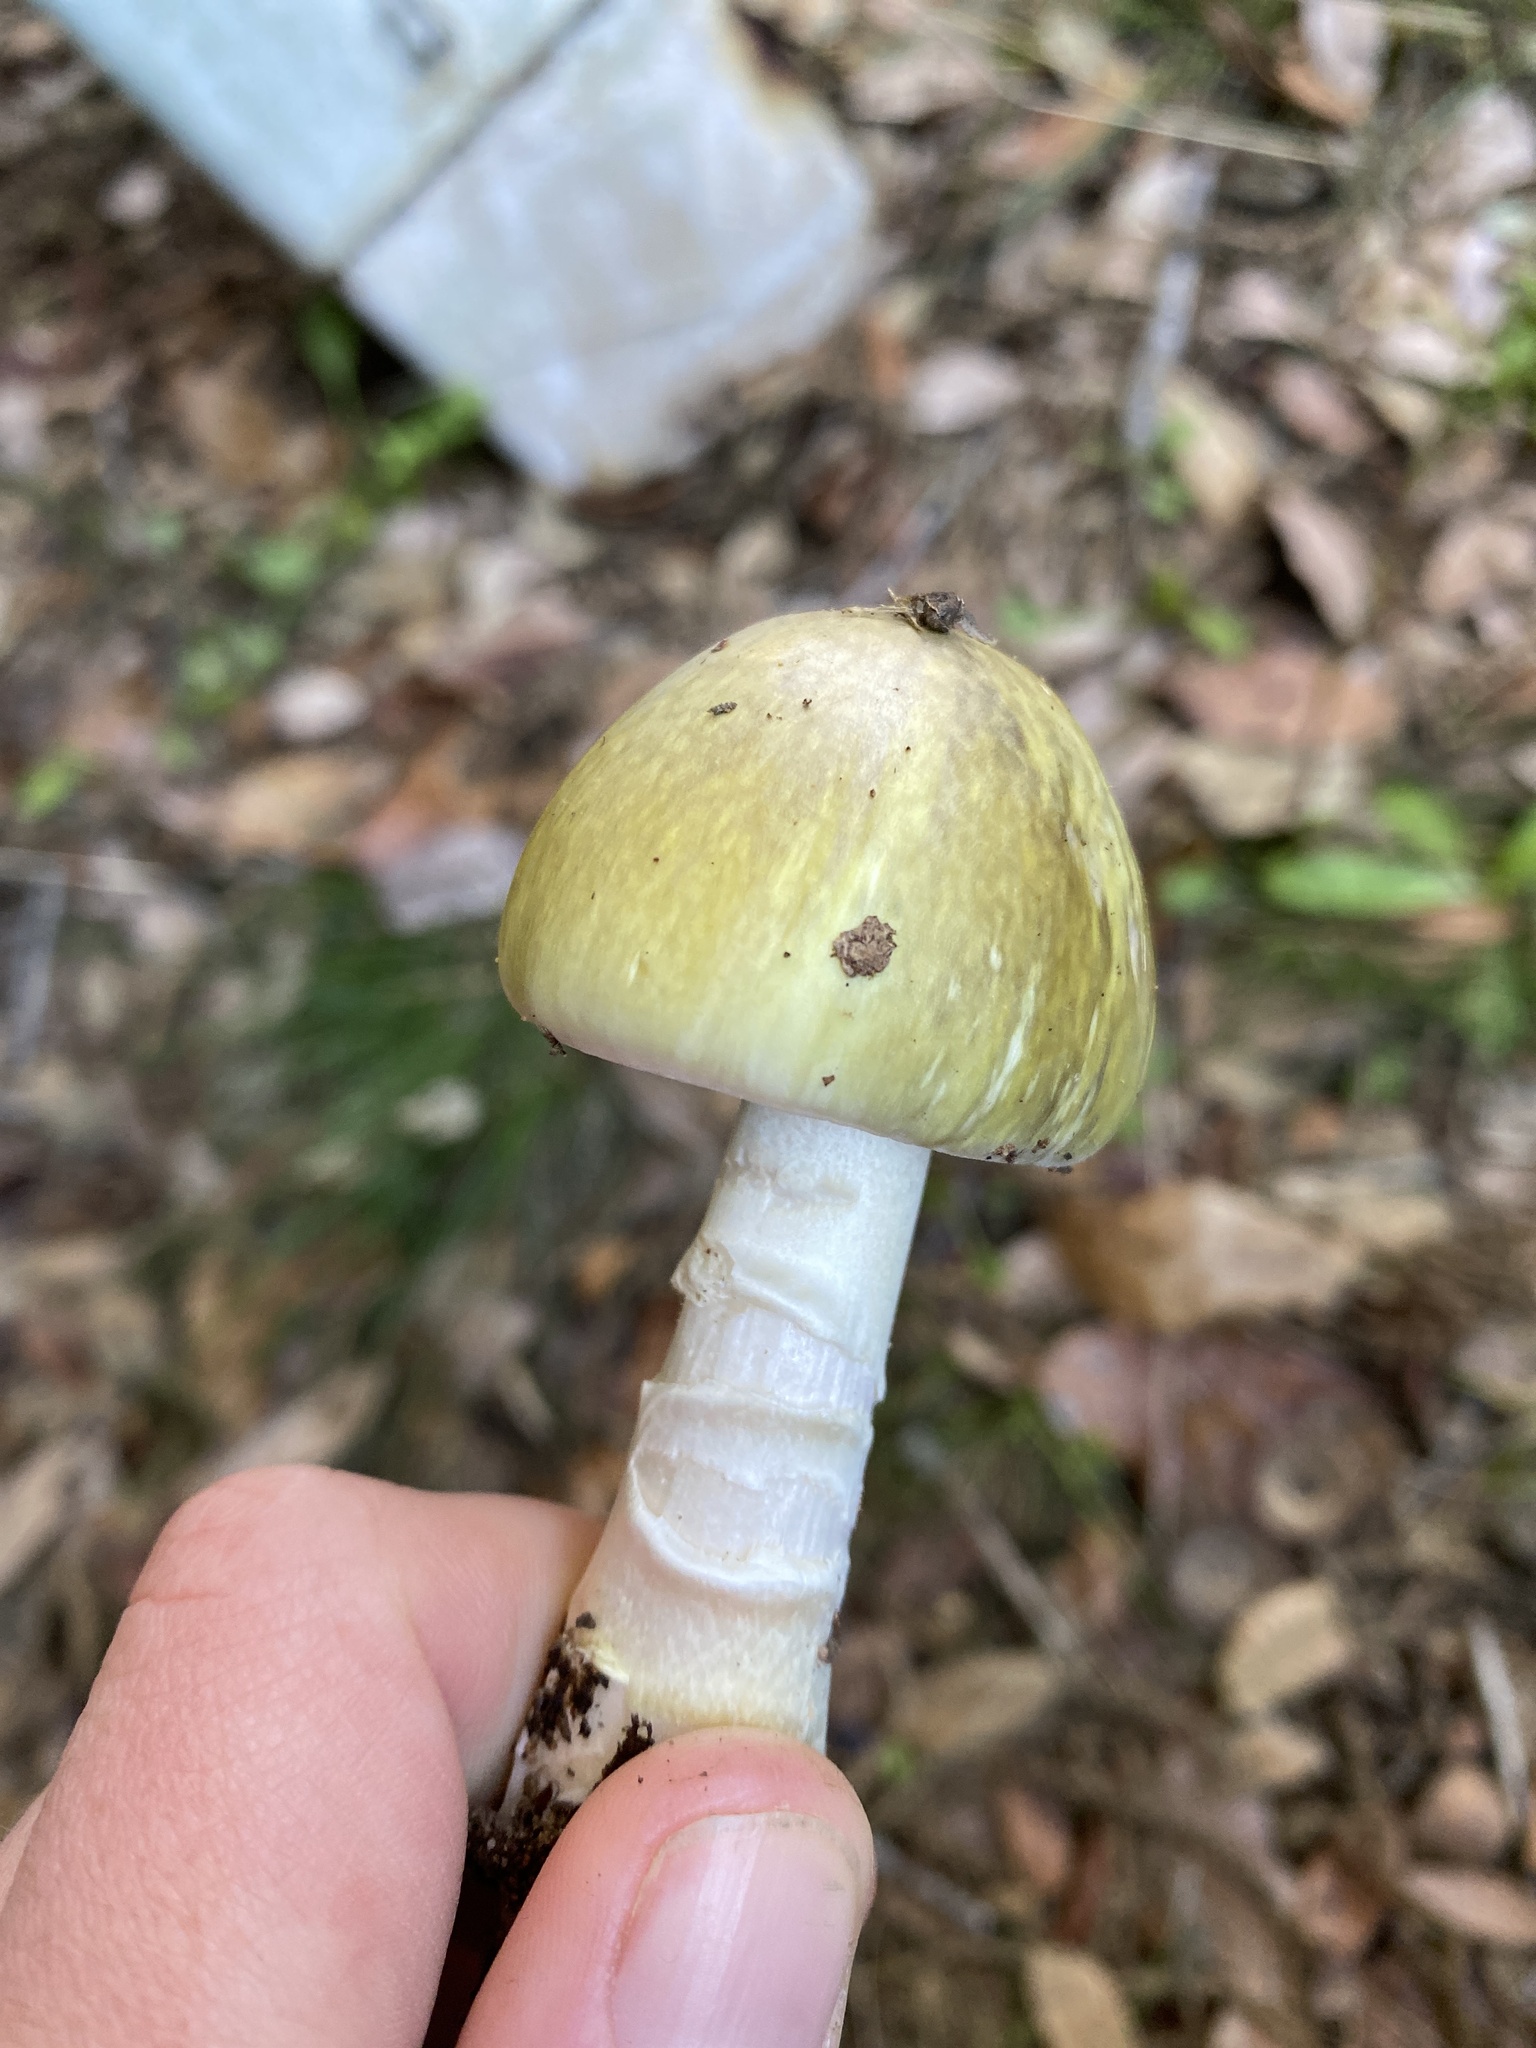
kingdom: Fungi
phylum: Basidiomycota
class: Agaricomycetes
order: Agaricales
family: Amanitaceae
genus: Amanita
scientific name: Amanita phalloides
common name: Death cap
